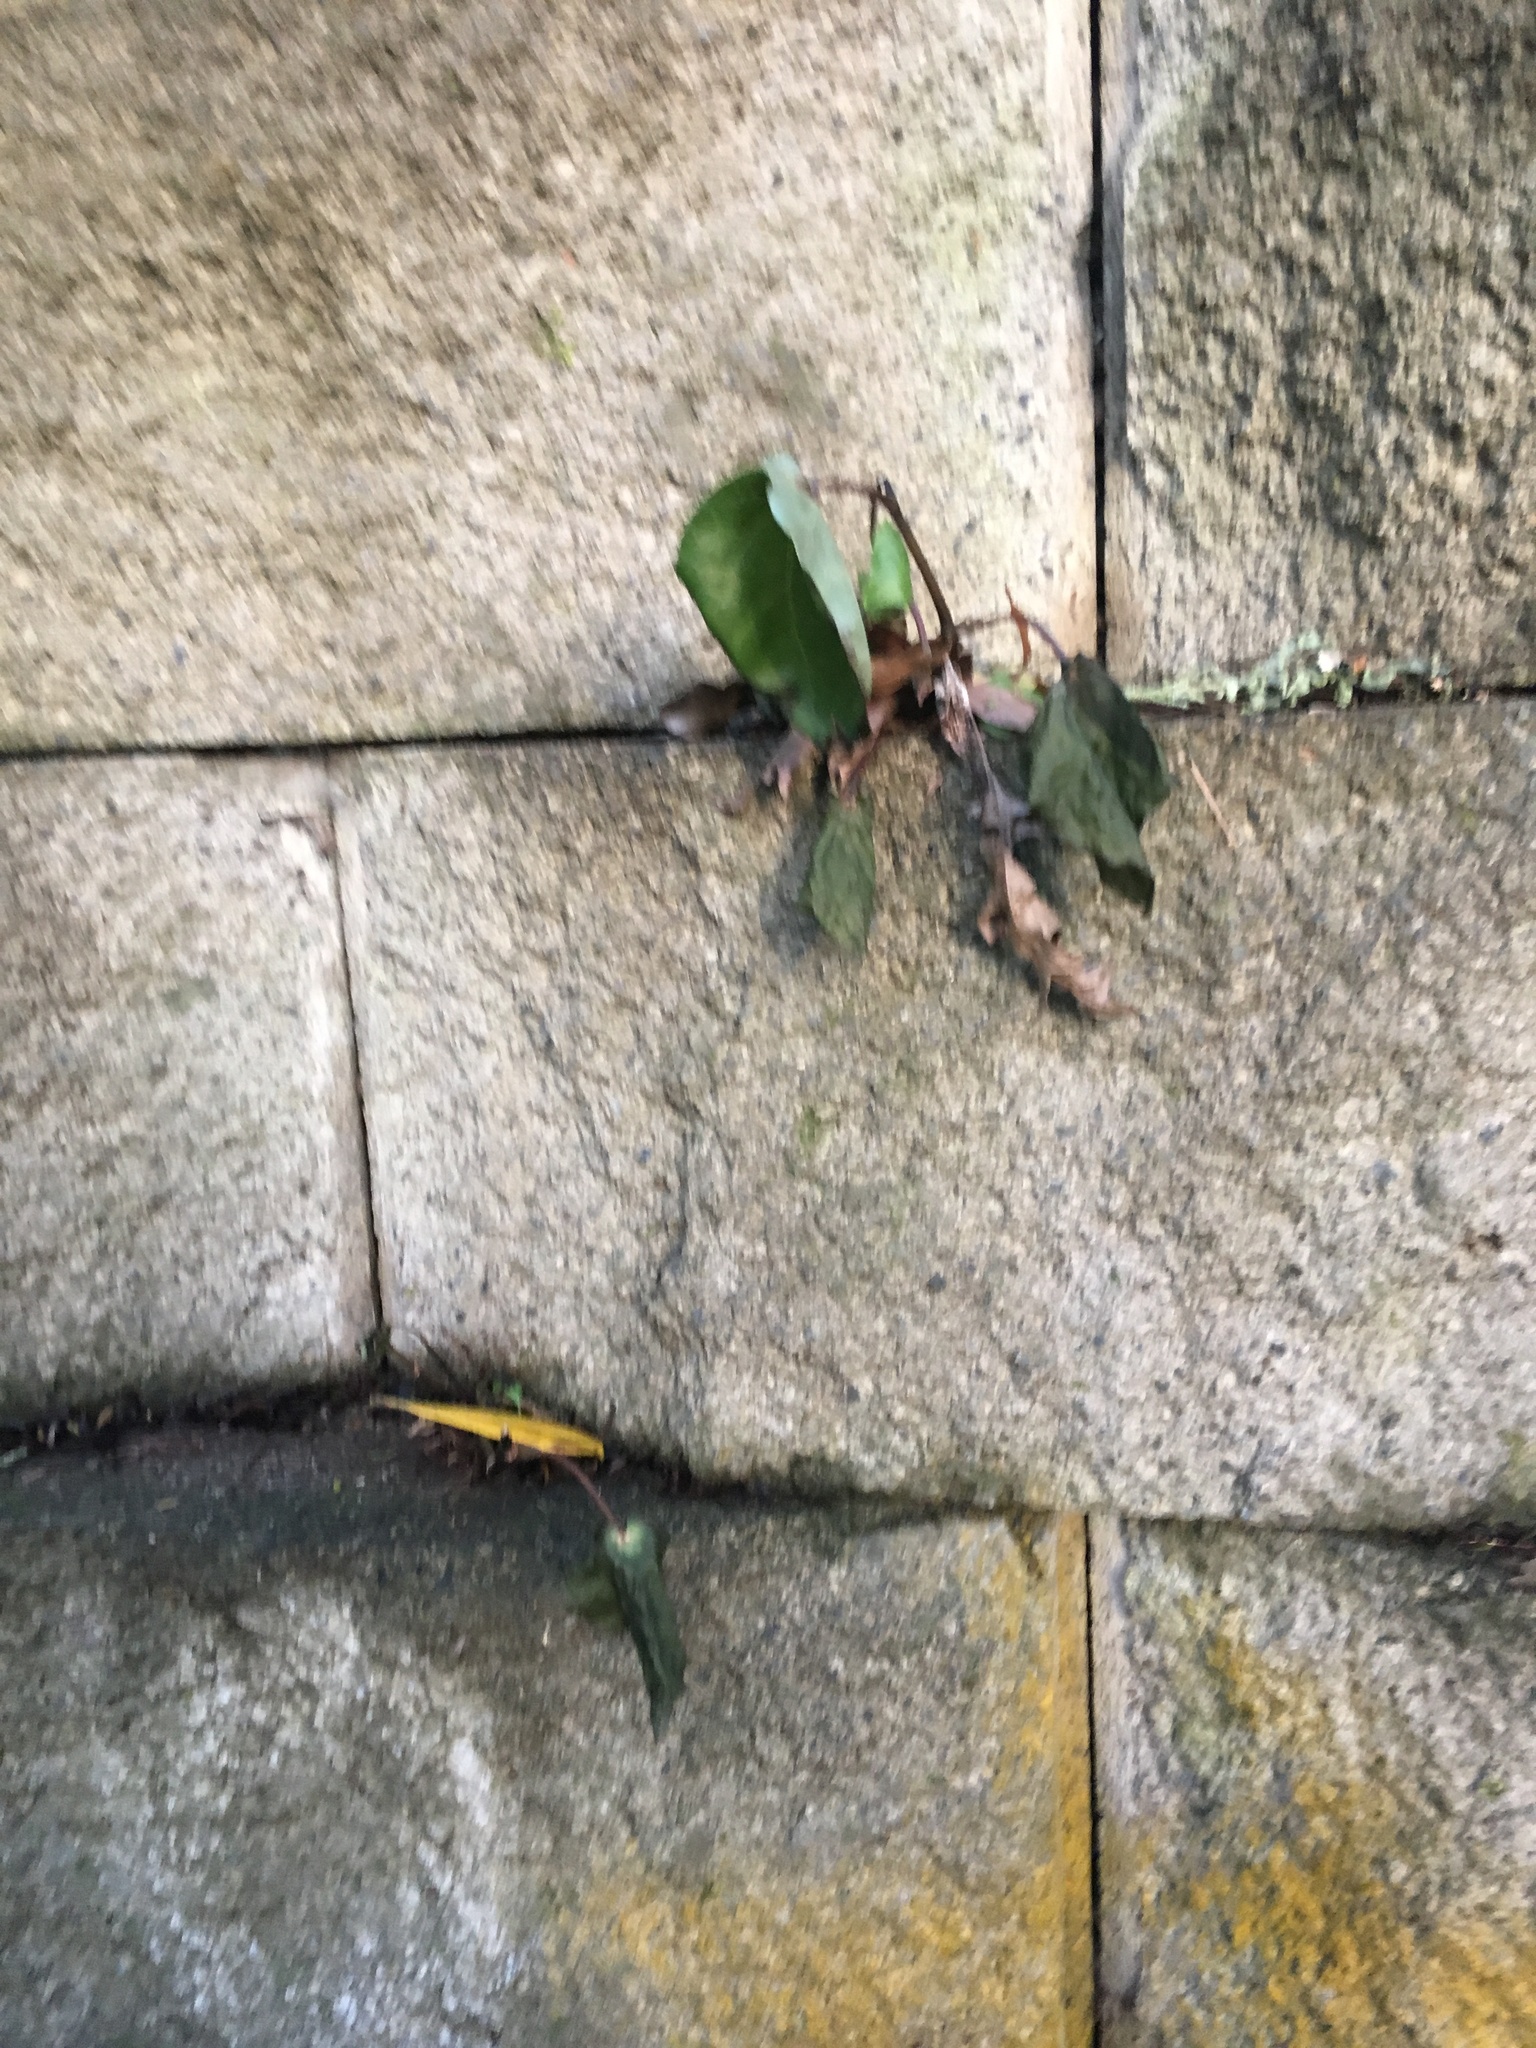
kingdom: Plantae
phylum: Tracheophyta
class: Magnoliopsida
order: Piperales
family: Piperaceae
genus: Macropiper
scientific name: Macropiper excelsum
